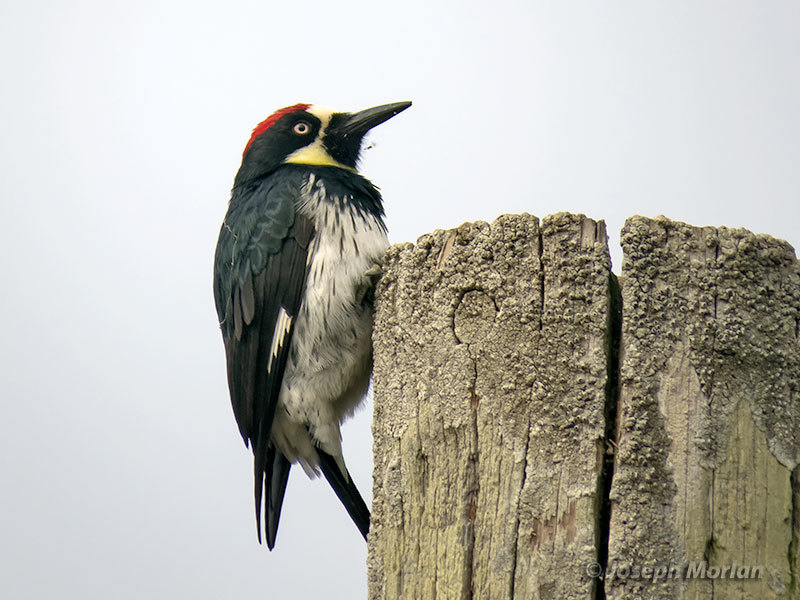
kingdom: Animalia
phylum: Chordata
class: Aves
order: Piciformes
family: Picidae
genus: Melanerpes
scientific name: Melanerpes formicivorus
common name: Acorn woodpecker
